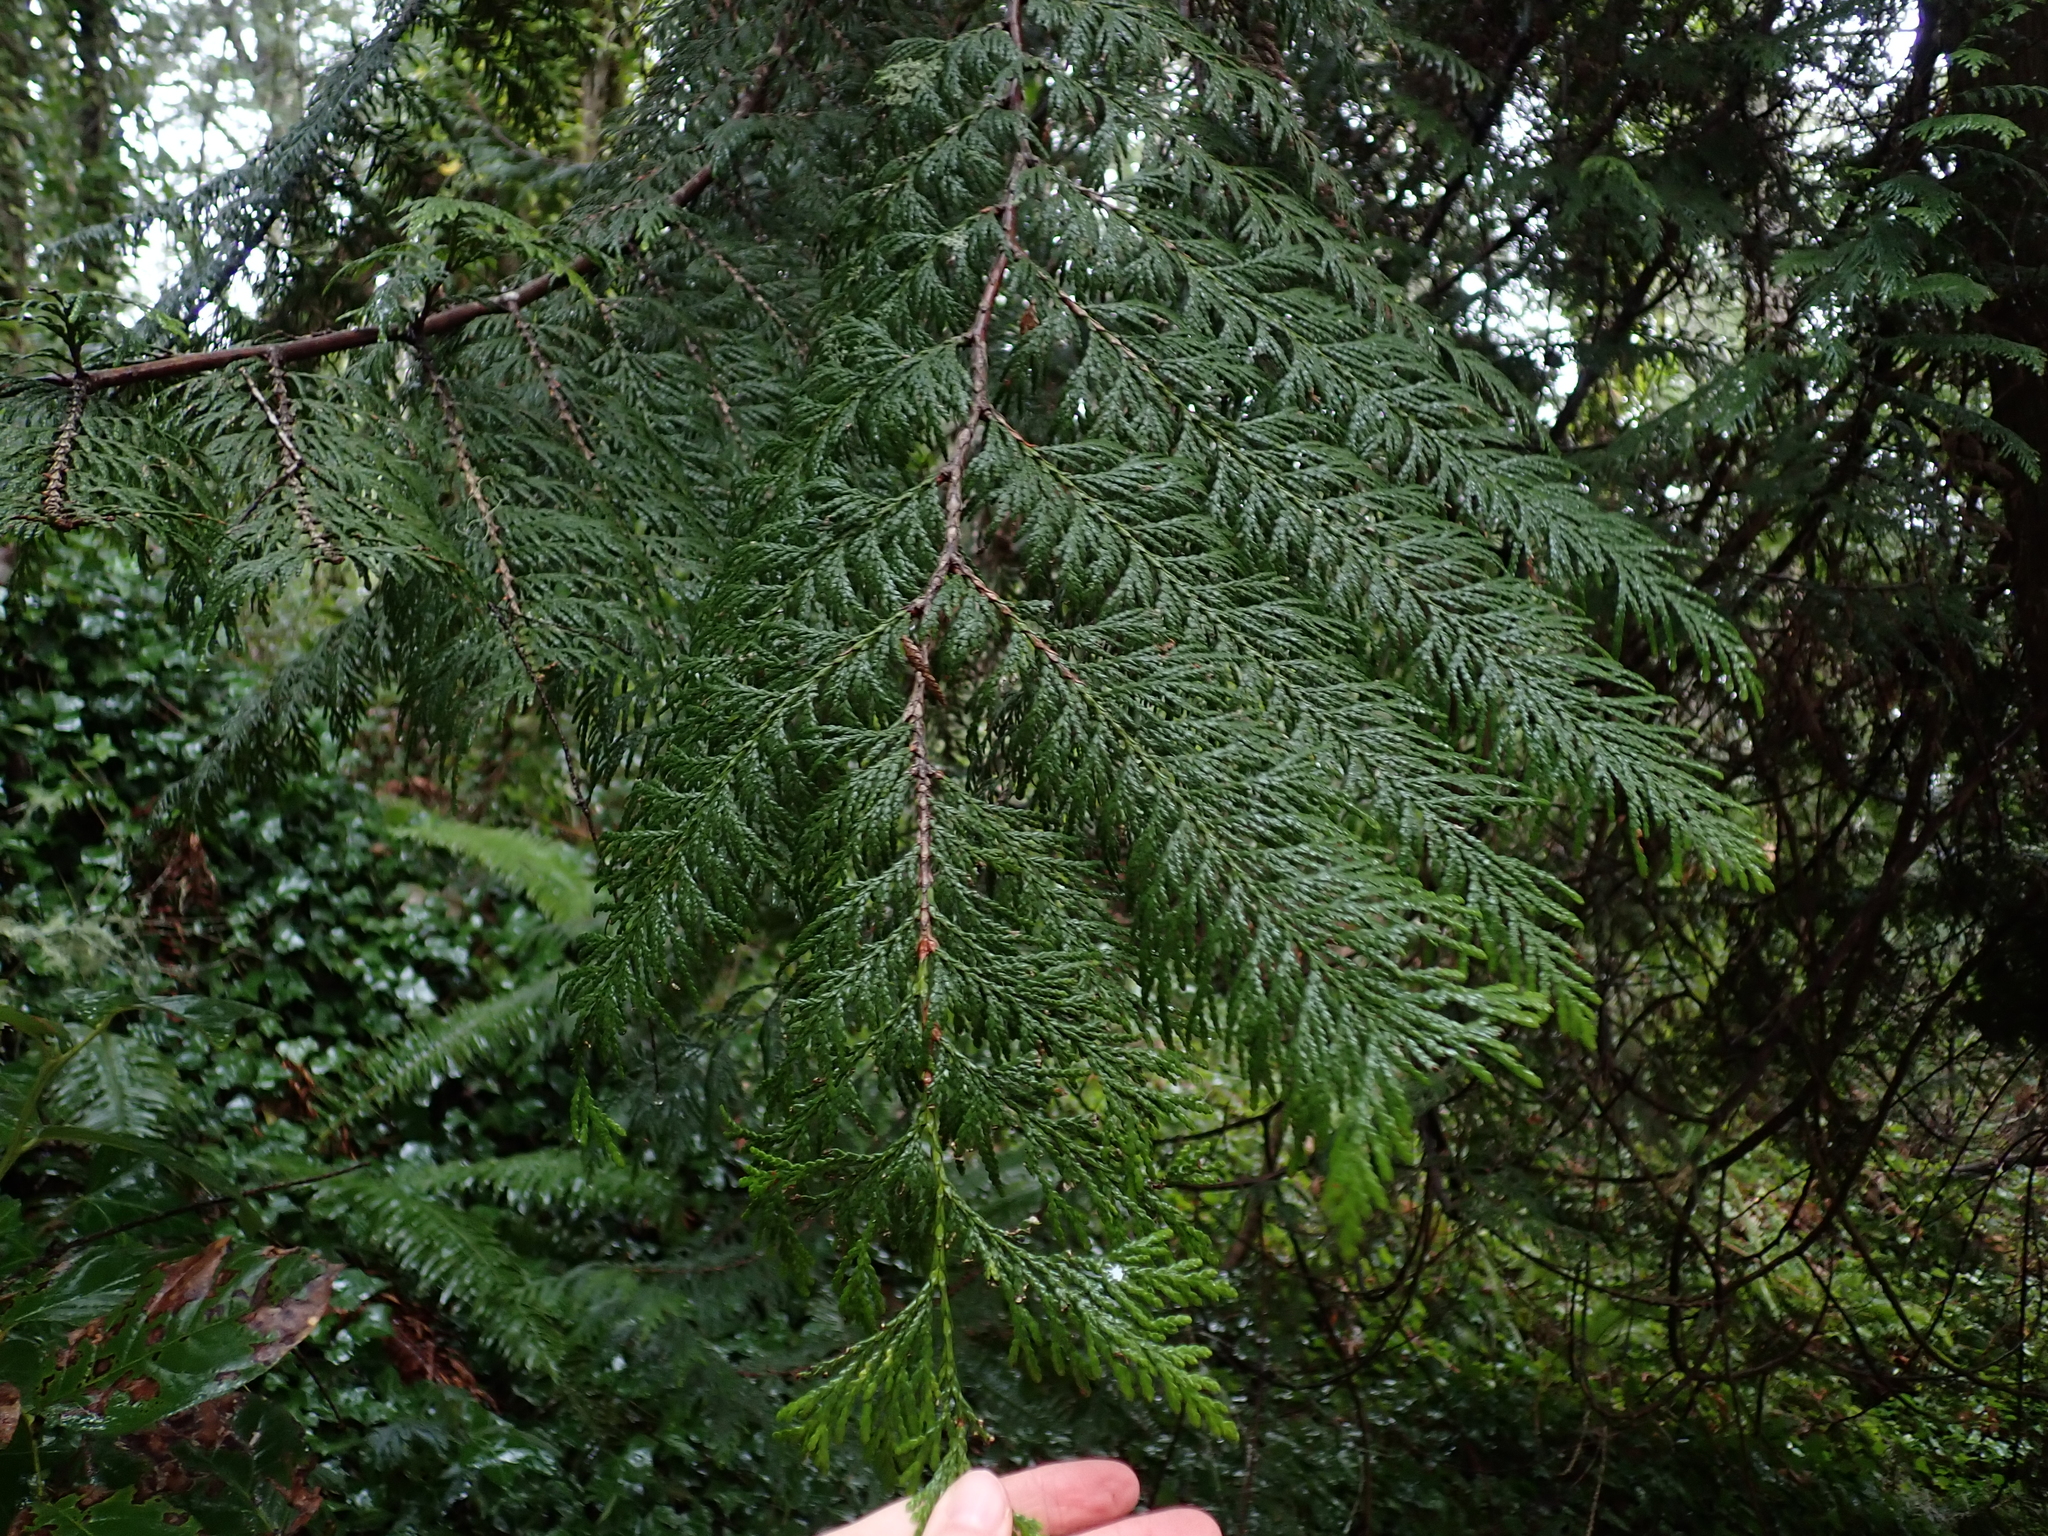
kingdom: Plantae
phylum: Tracheophyta
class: Pinopsida
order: Pinales
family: Cupressaceae
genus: Thuja
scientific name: Thuja plicata
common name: Western red-cedar
